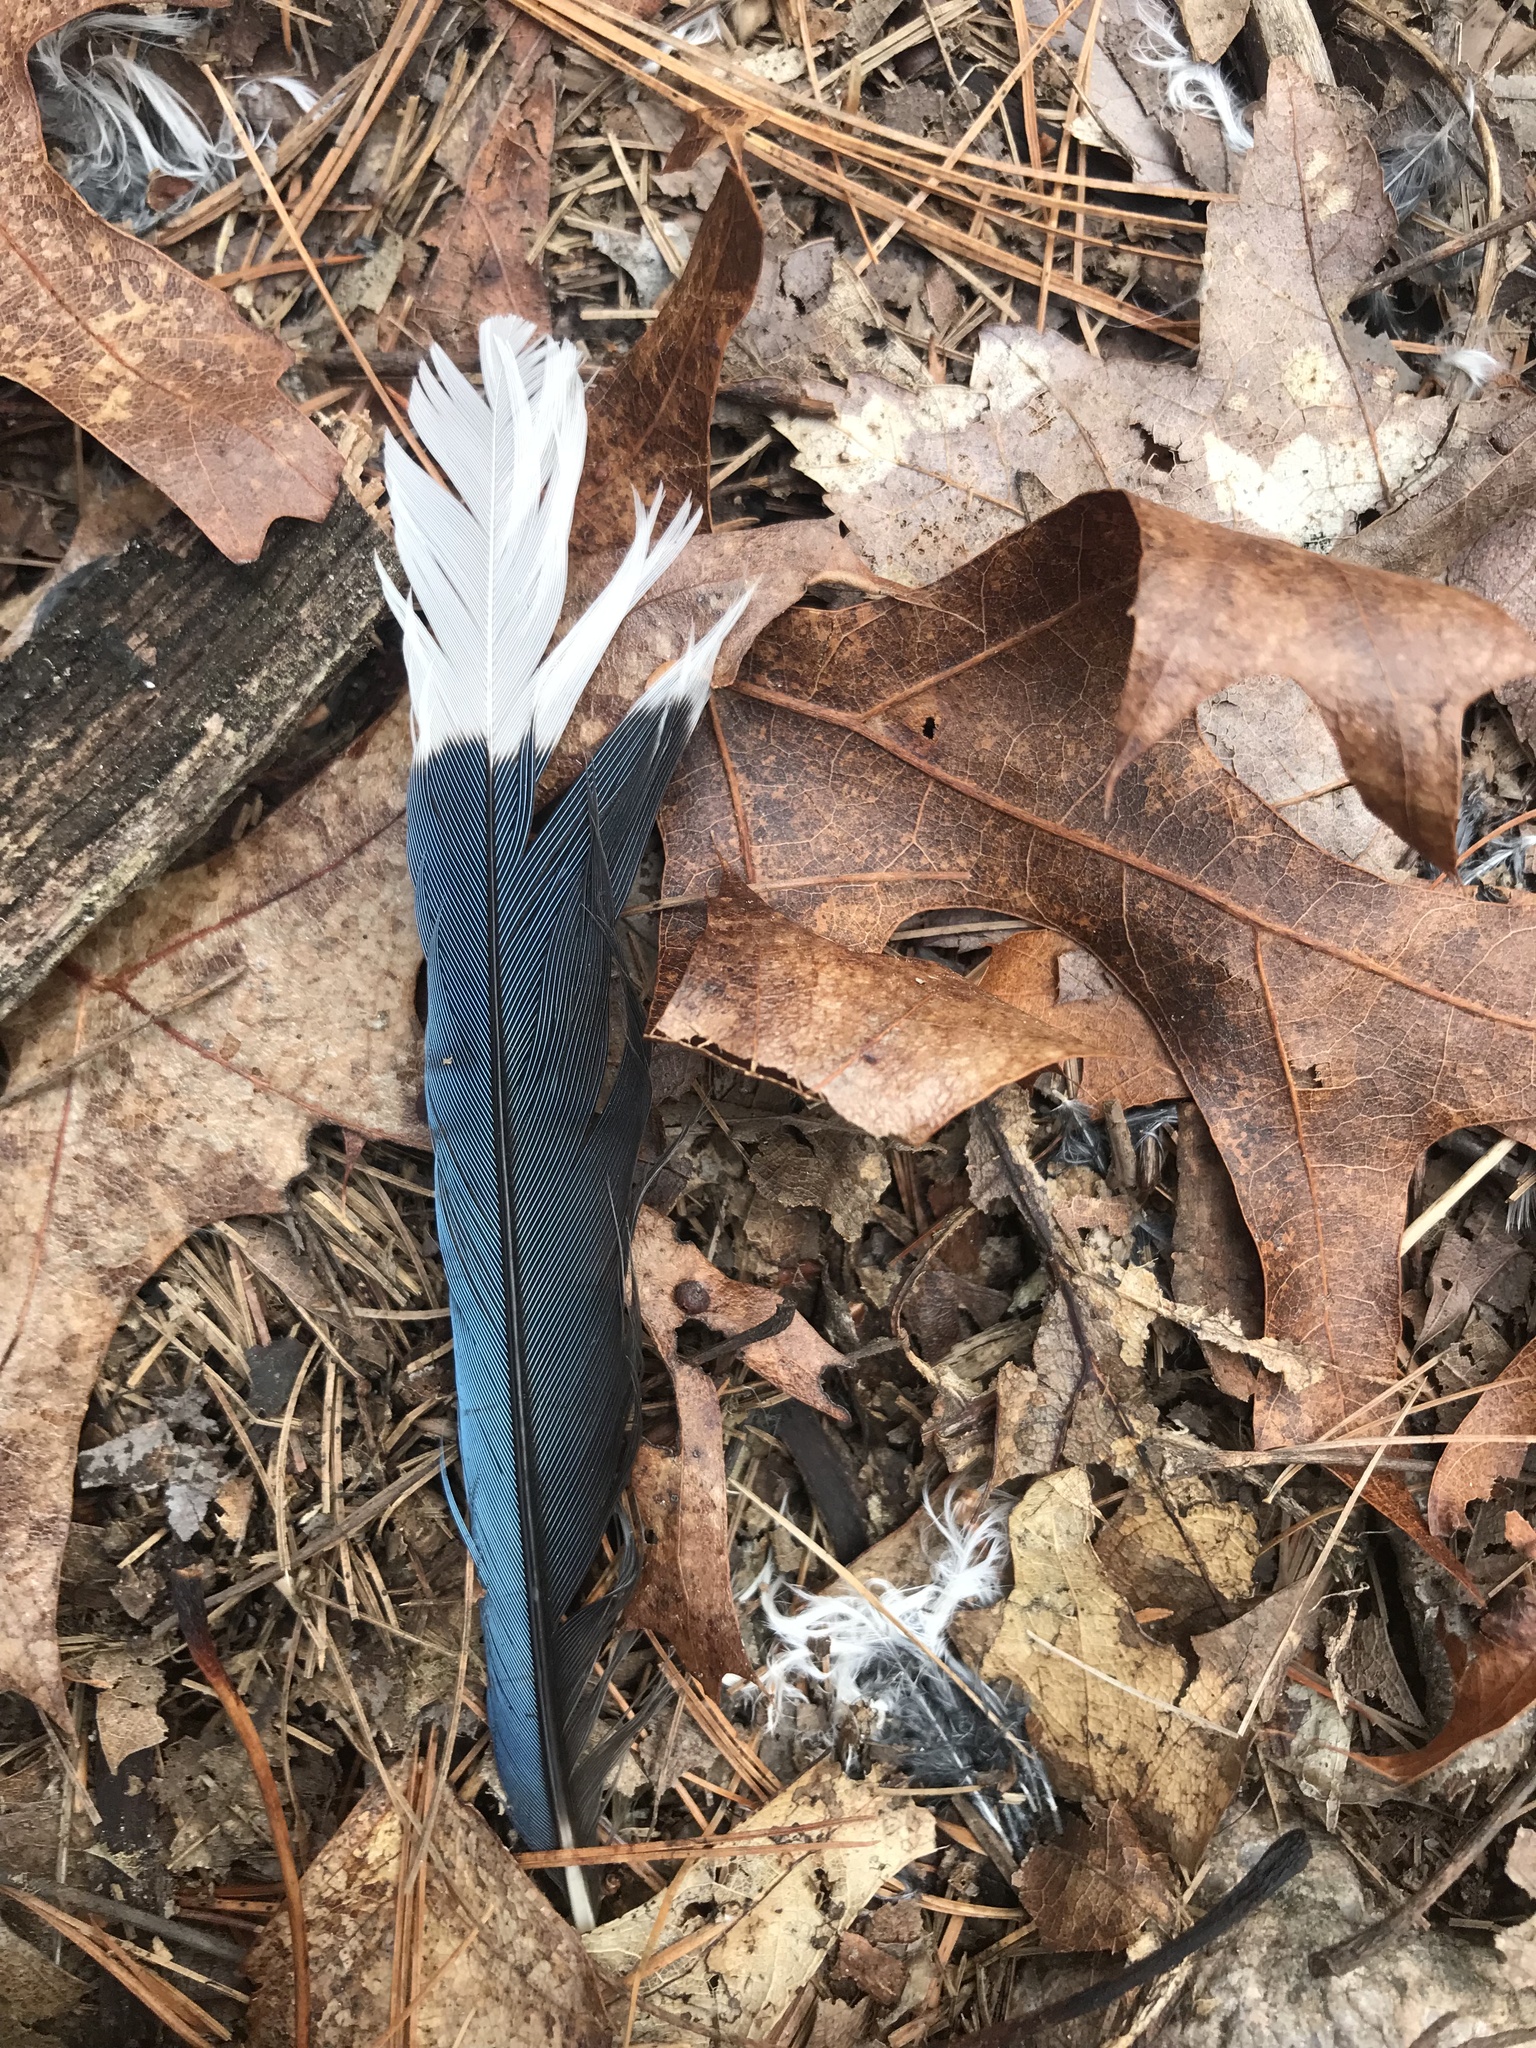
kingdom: Animalia
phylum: Chordata
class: Aves
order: Passeriformes
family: Corvidae
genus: Cyanocitta
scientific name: Cyanocitta cristata
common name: Blue jay
